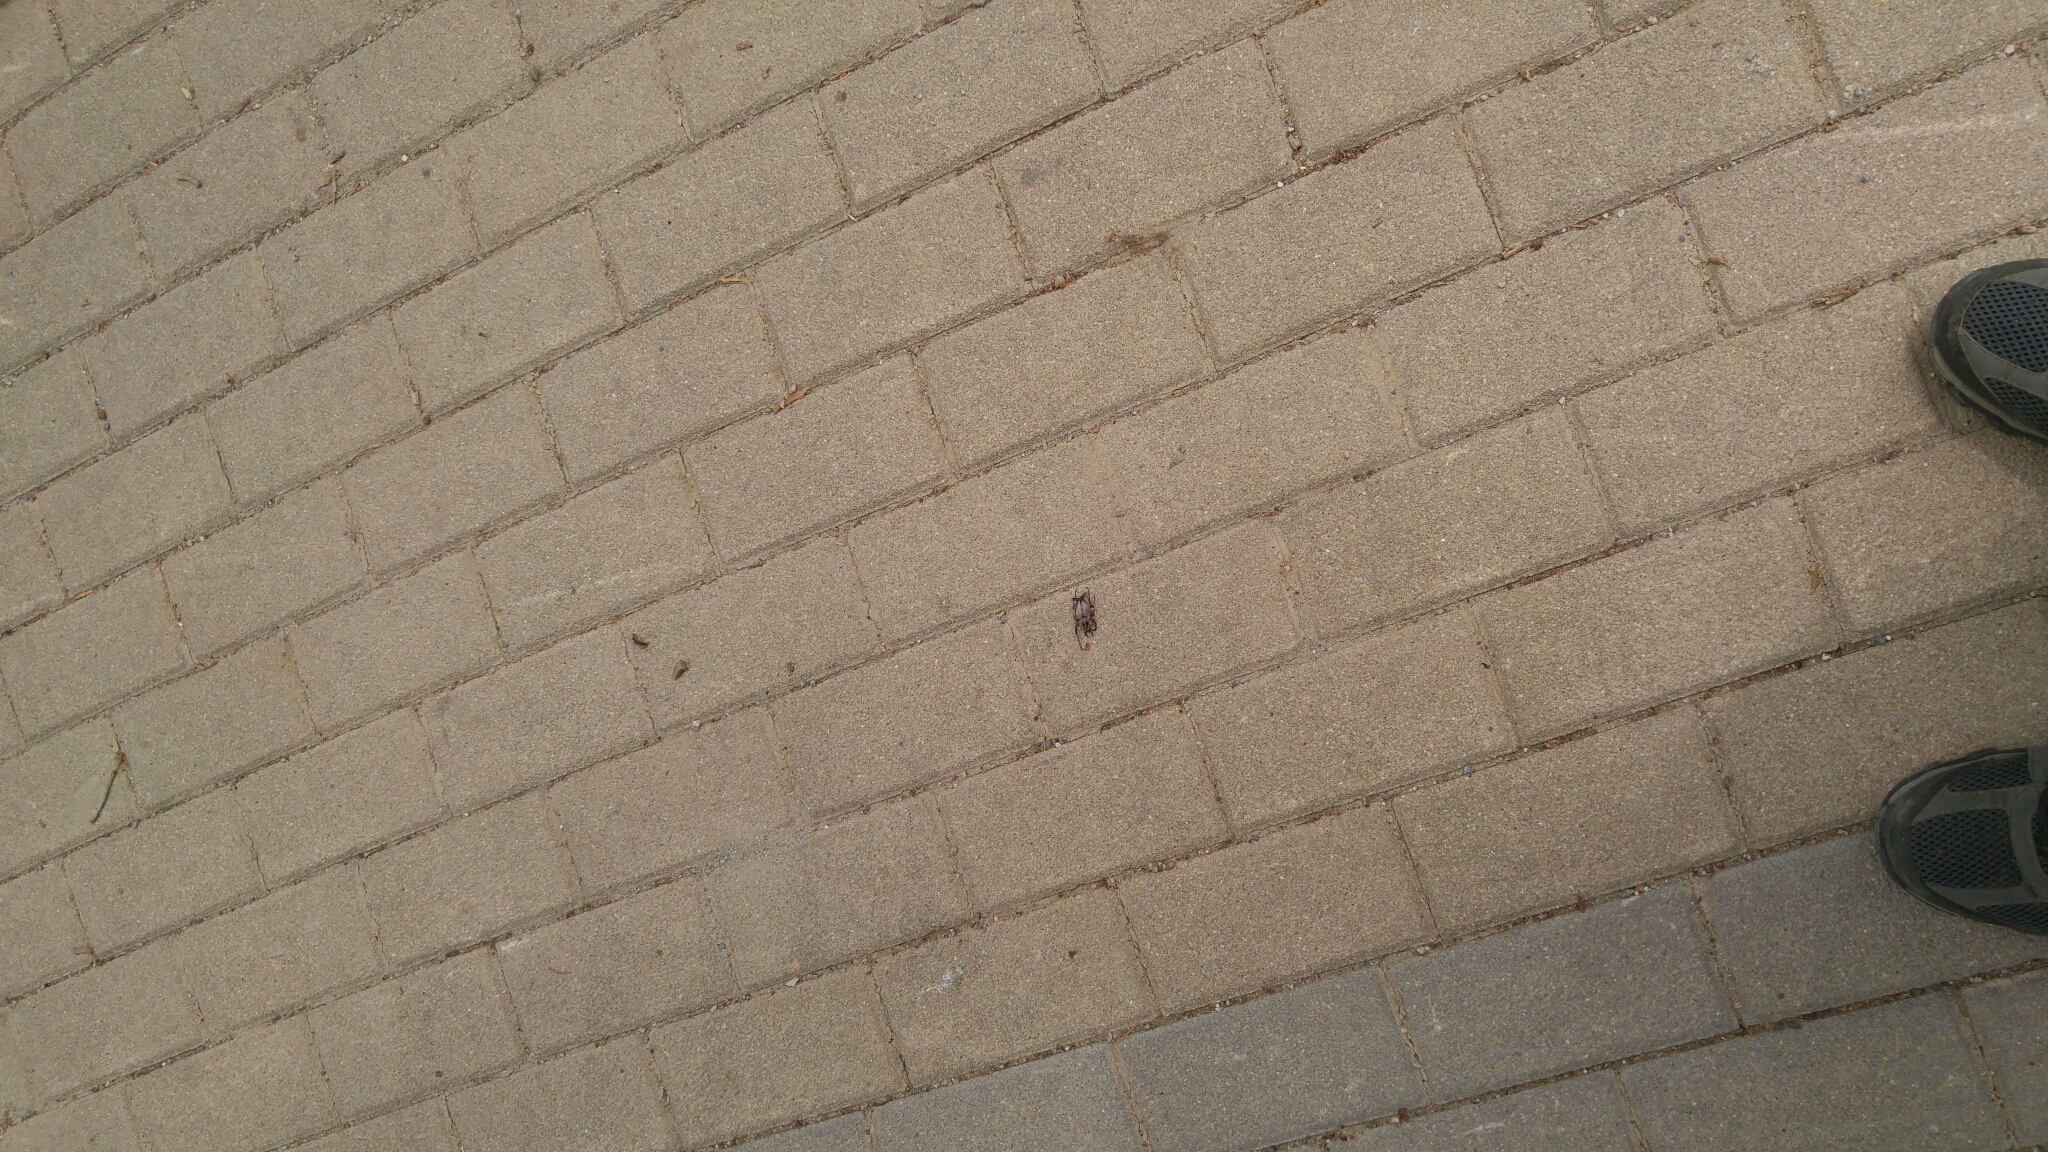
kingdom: Animalia
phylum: Arthropoda
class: Insecta
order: Coleoptera
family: Scarabaeidae
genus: Dicronocephalus
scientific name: Dicronocephalus adamsi
